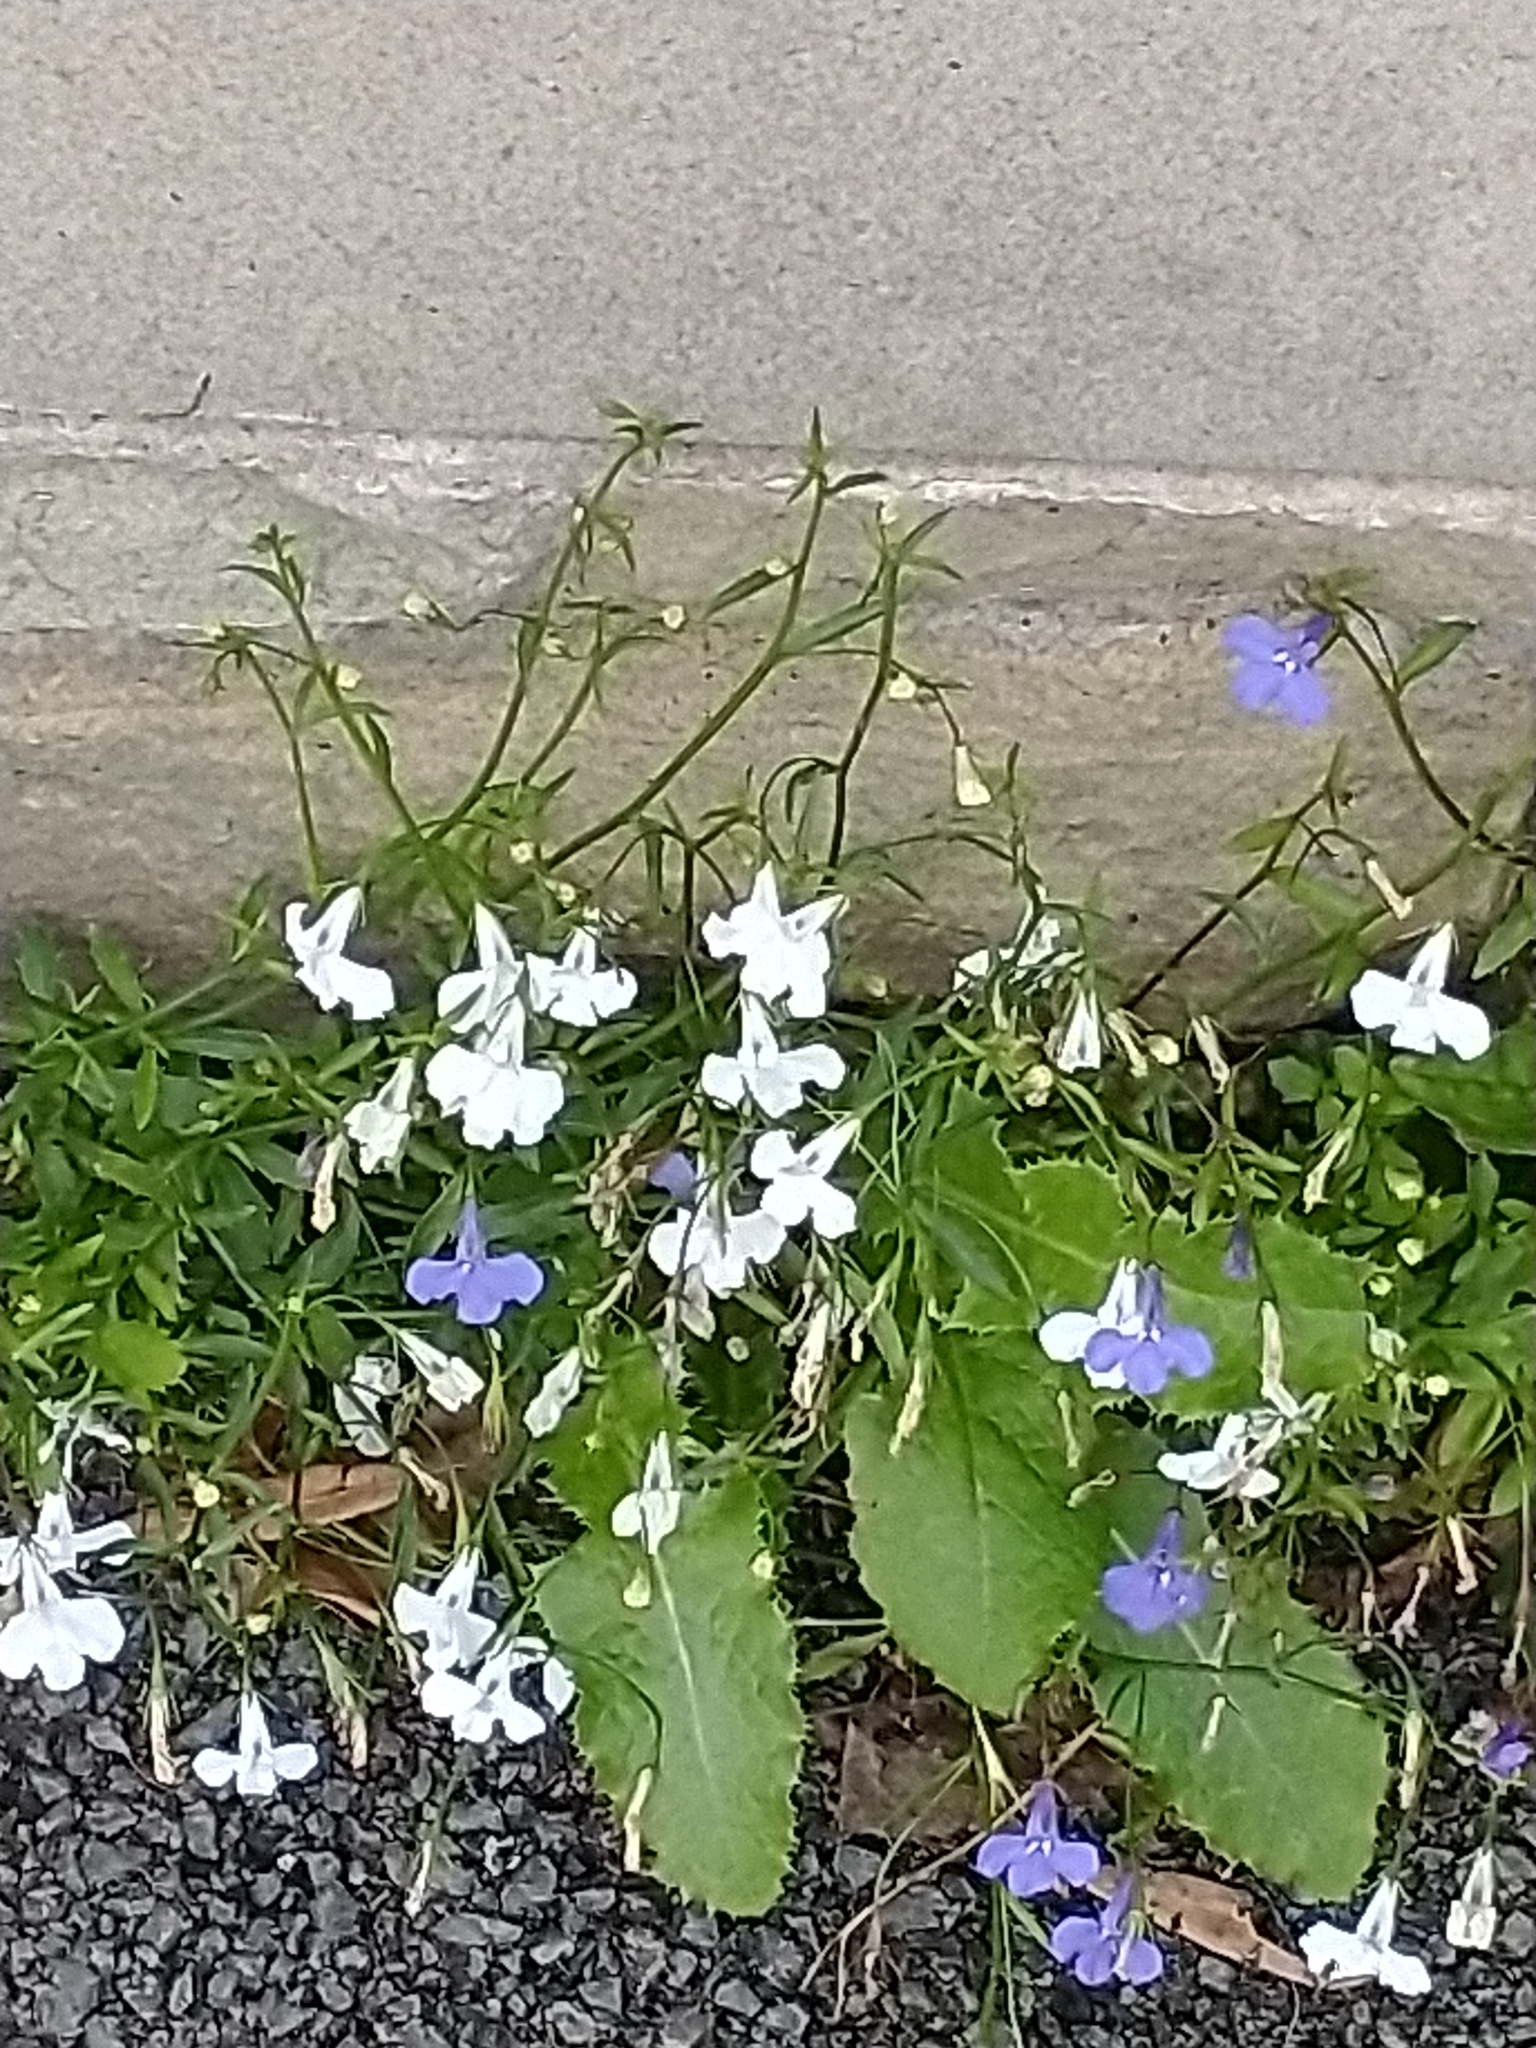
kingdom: Plantae
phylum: Tracheophyta
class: Magnoliopsida
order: Asterales
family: Campanulaceae
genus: Lobelia
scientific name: Lobelia erinus
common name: Edging lobelia
